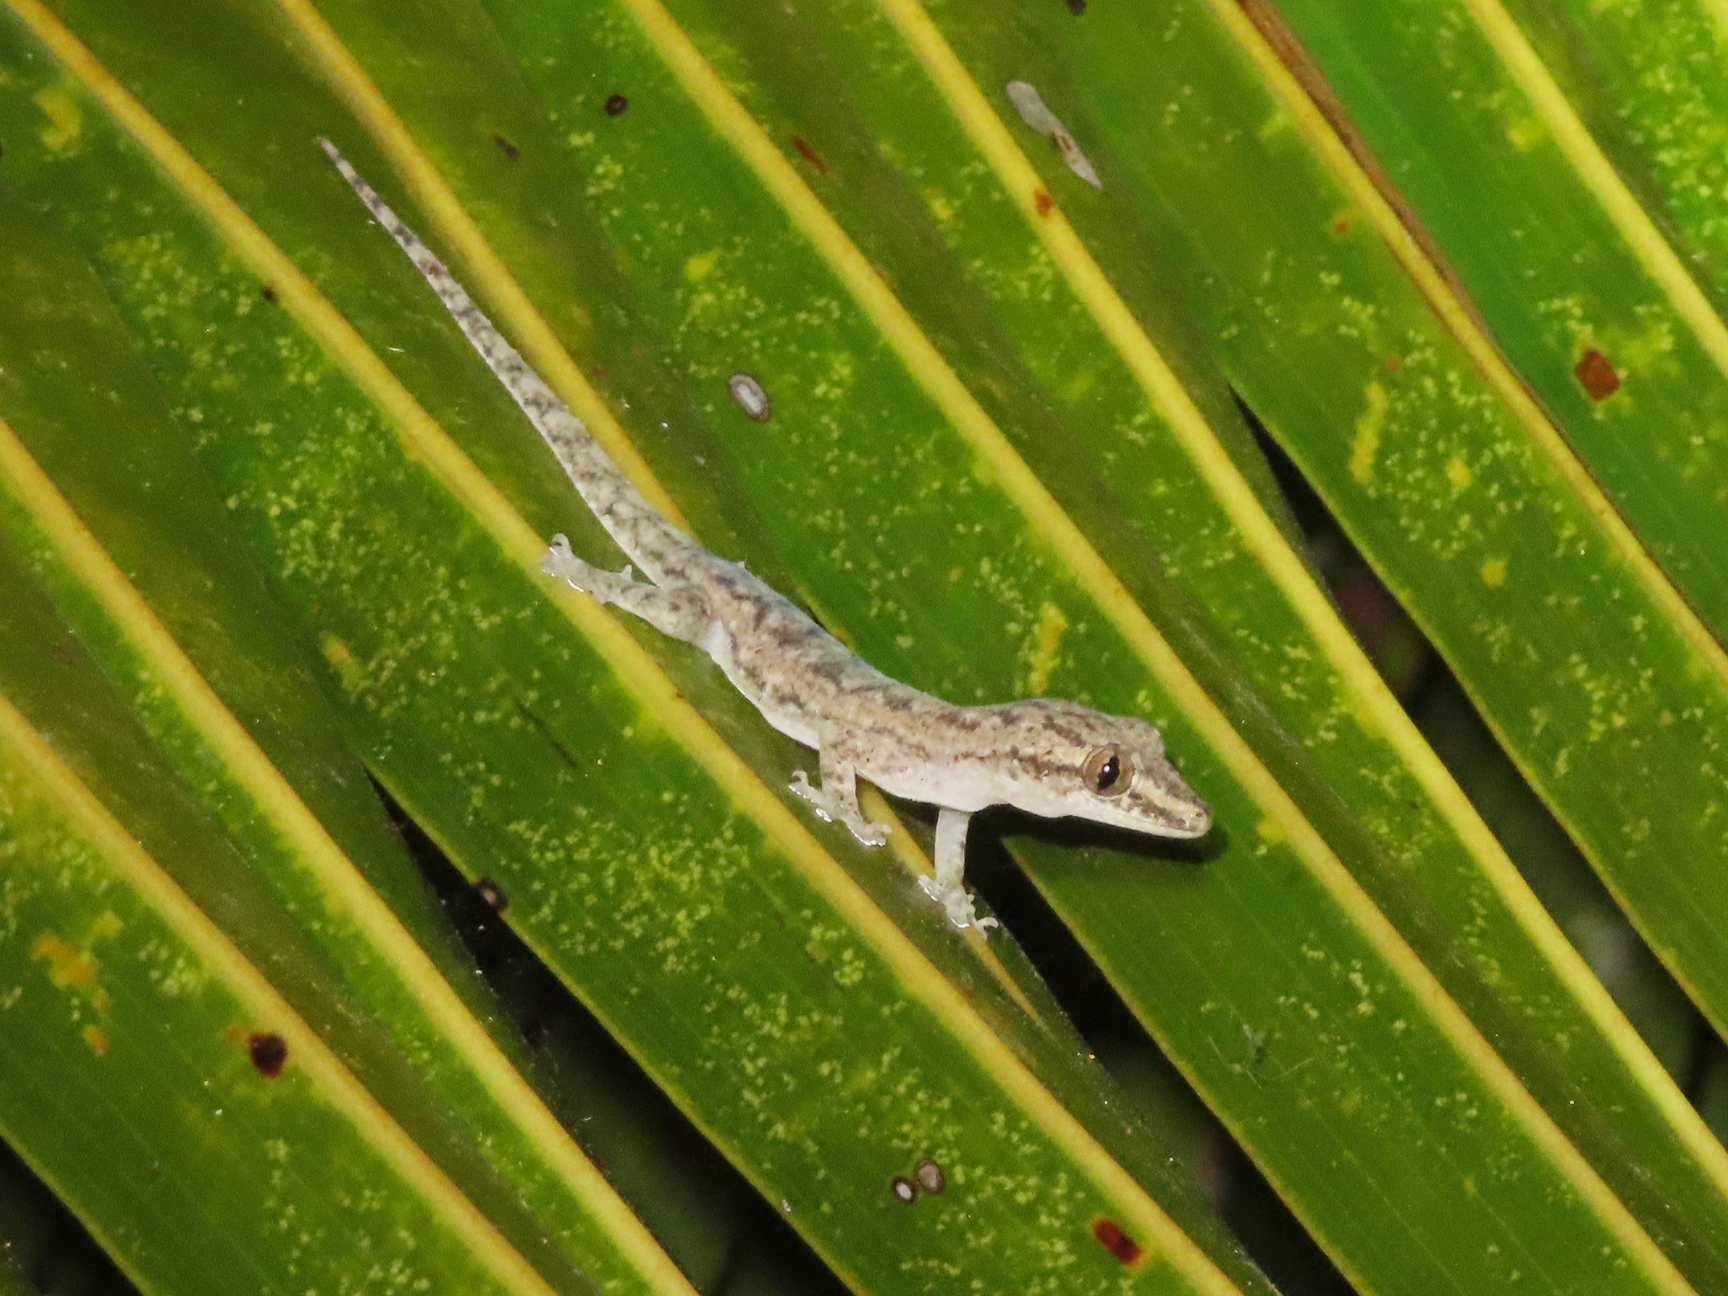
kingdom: Animalia
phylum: Chordata
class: Squamata
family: Gekkonidae
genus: Hemidactylus
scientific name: Hemidactylus frenatus
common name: Common house gecko
